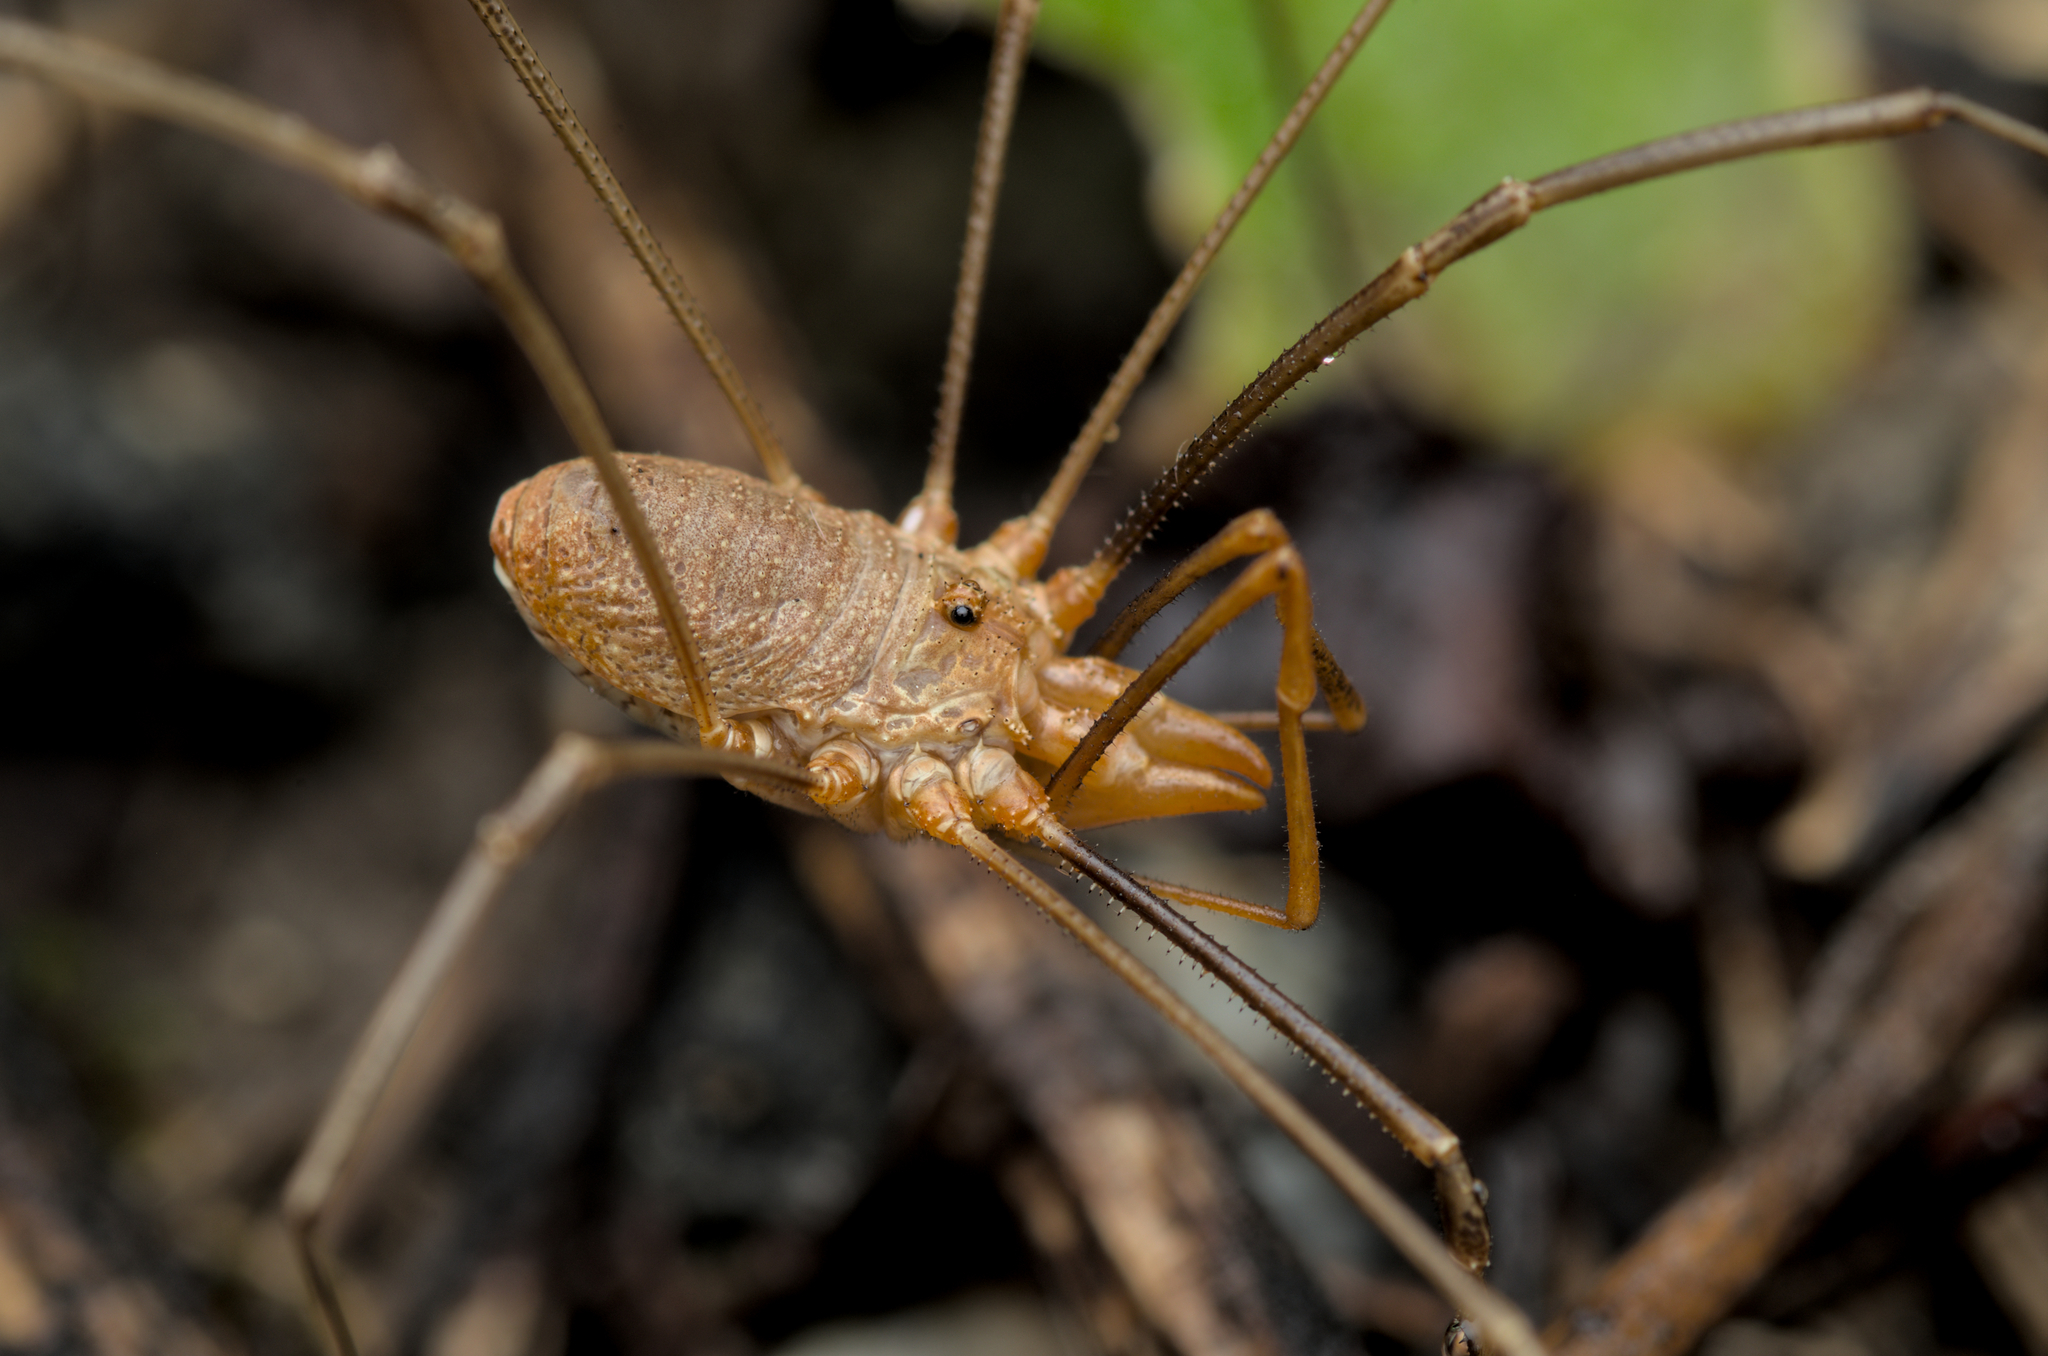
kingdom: Animalia
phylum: Arthropoda
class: Arachnida
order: Opiliones
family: Phalangiidae
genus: Phalangium
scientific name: Phalangium opilio
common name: Daddy longleg
